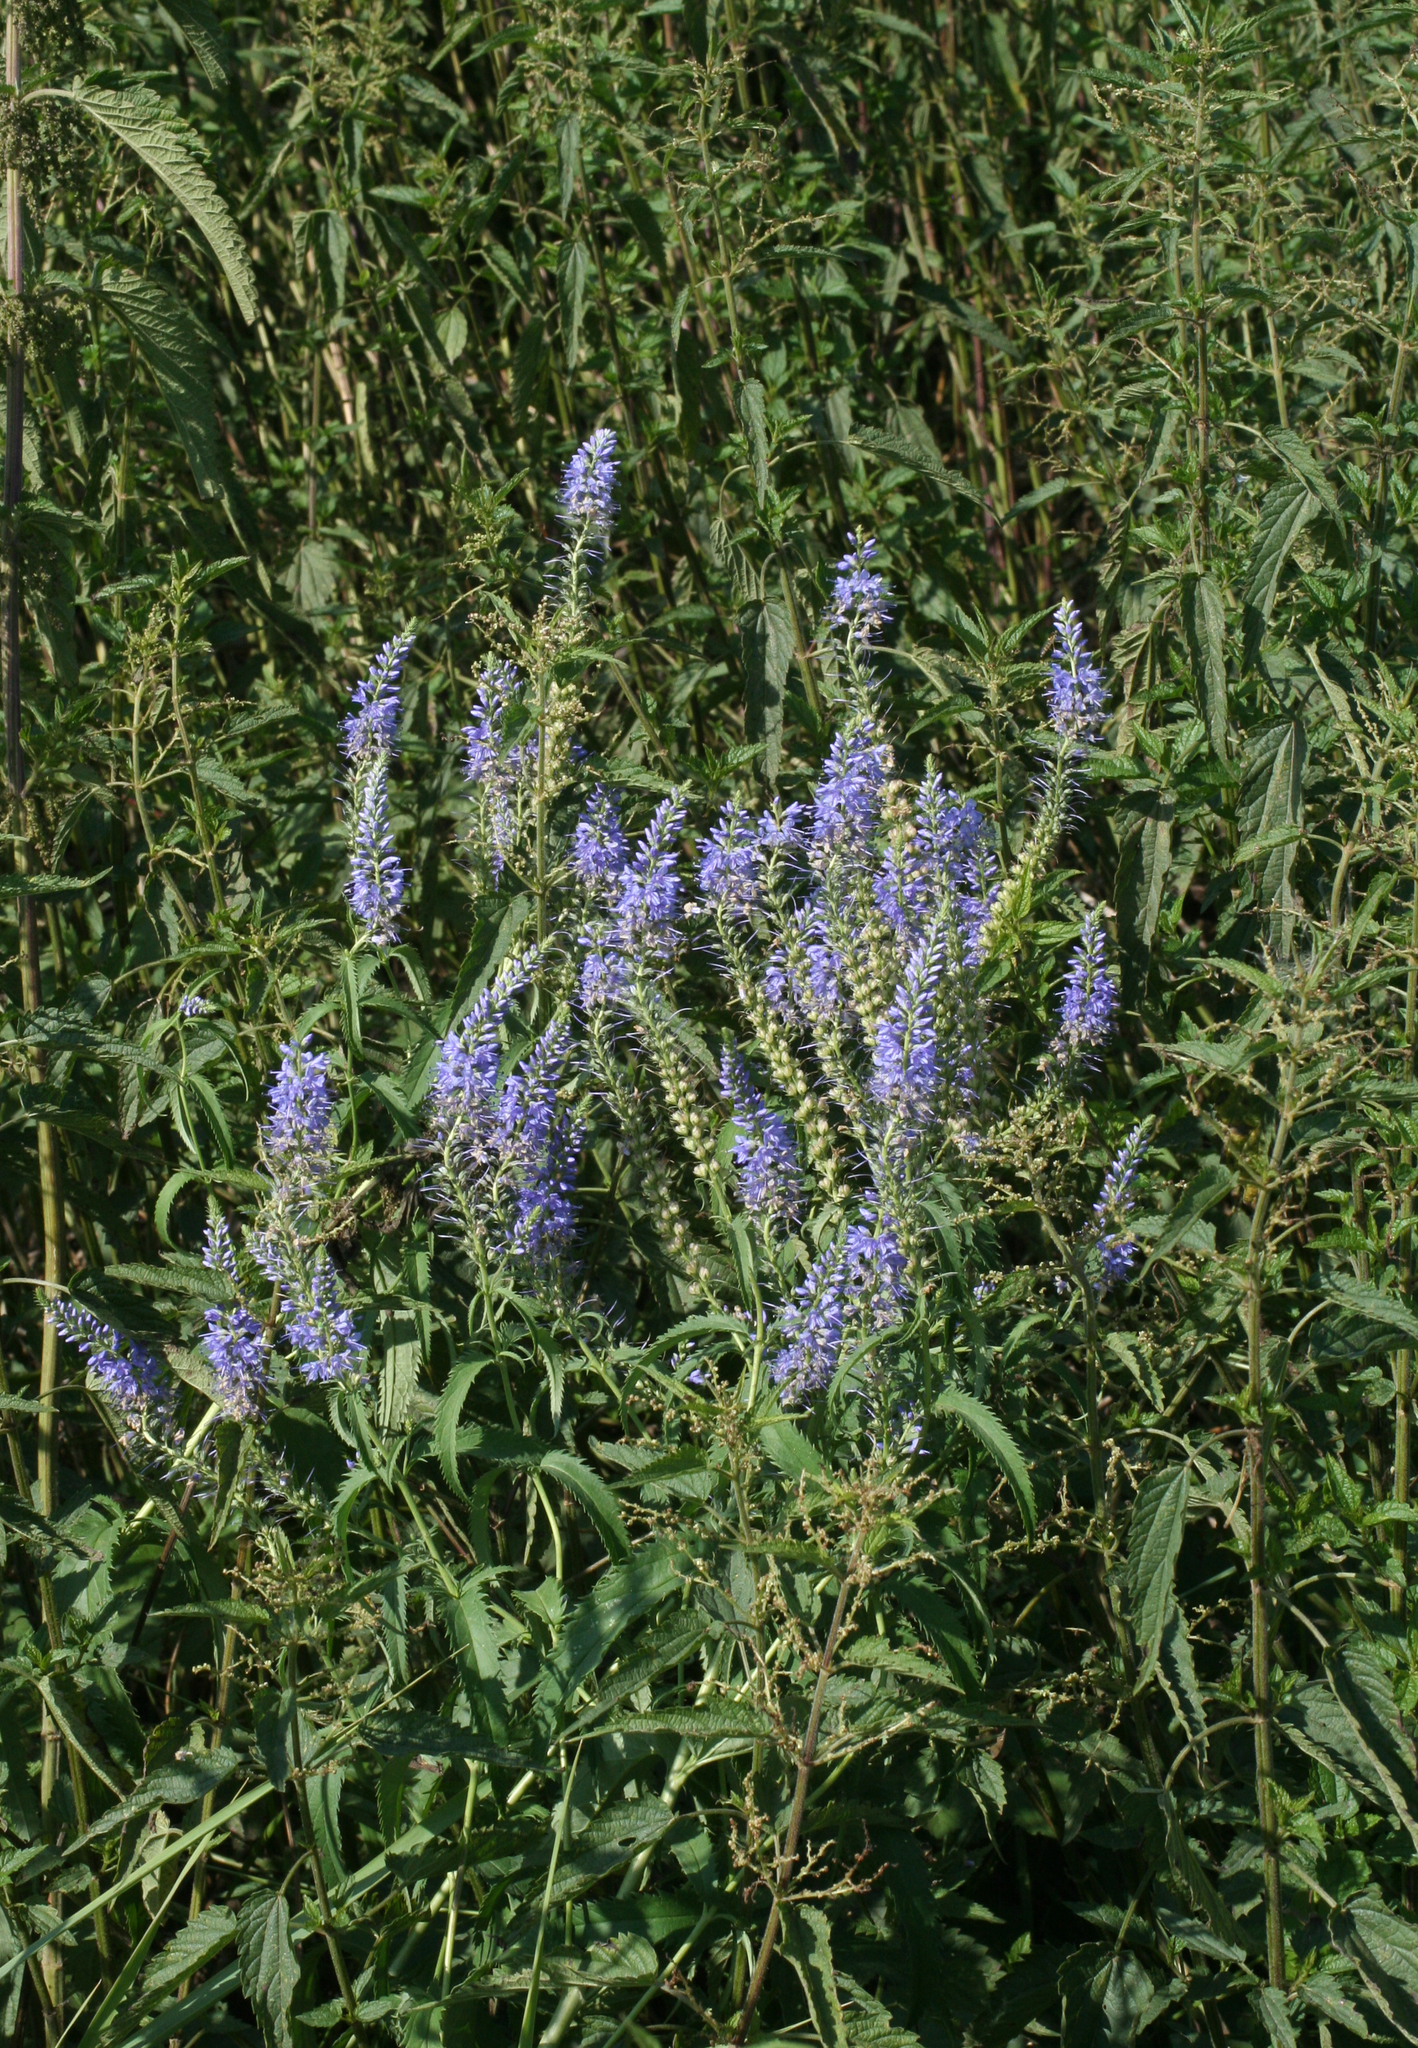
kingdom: Plantae
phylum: Tracheophyta
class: Magnoliopsida
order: Lamiales
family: Plantaginaceae
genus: Veronica
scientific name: Veronica longifolia
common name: Garden speedwell
